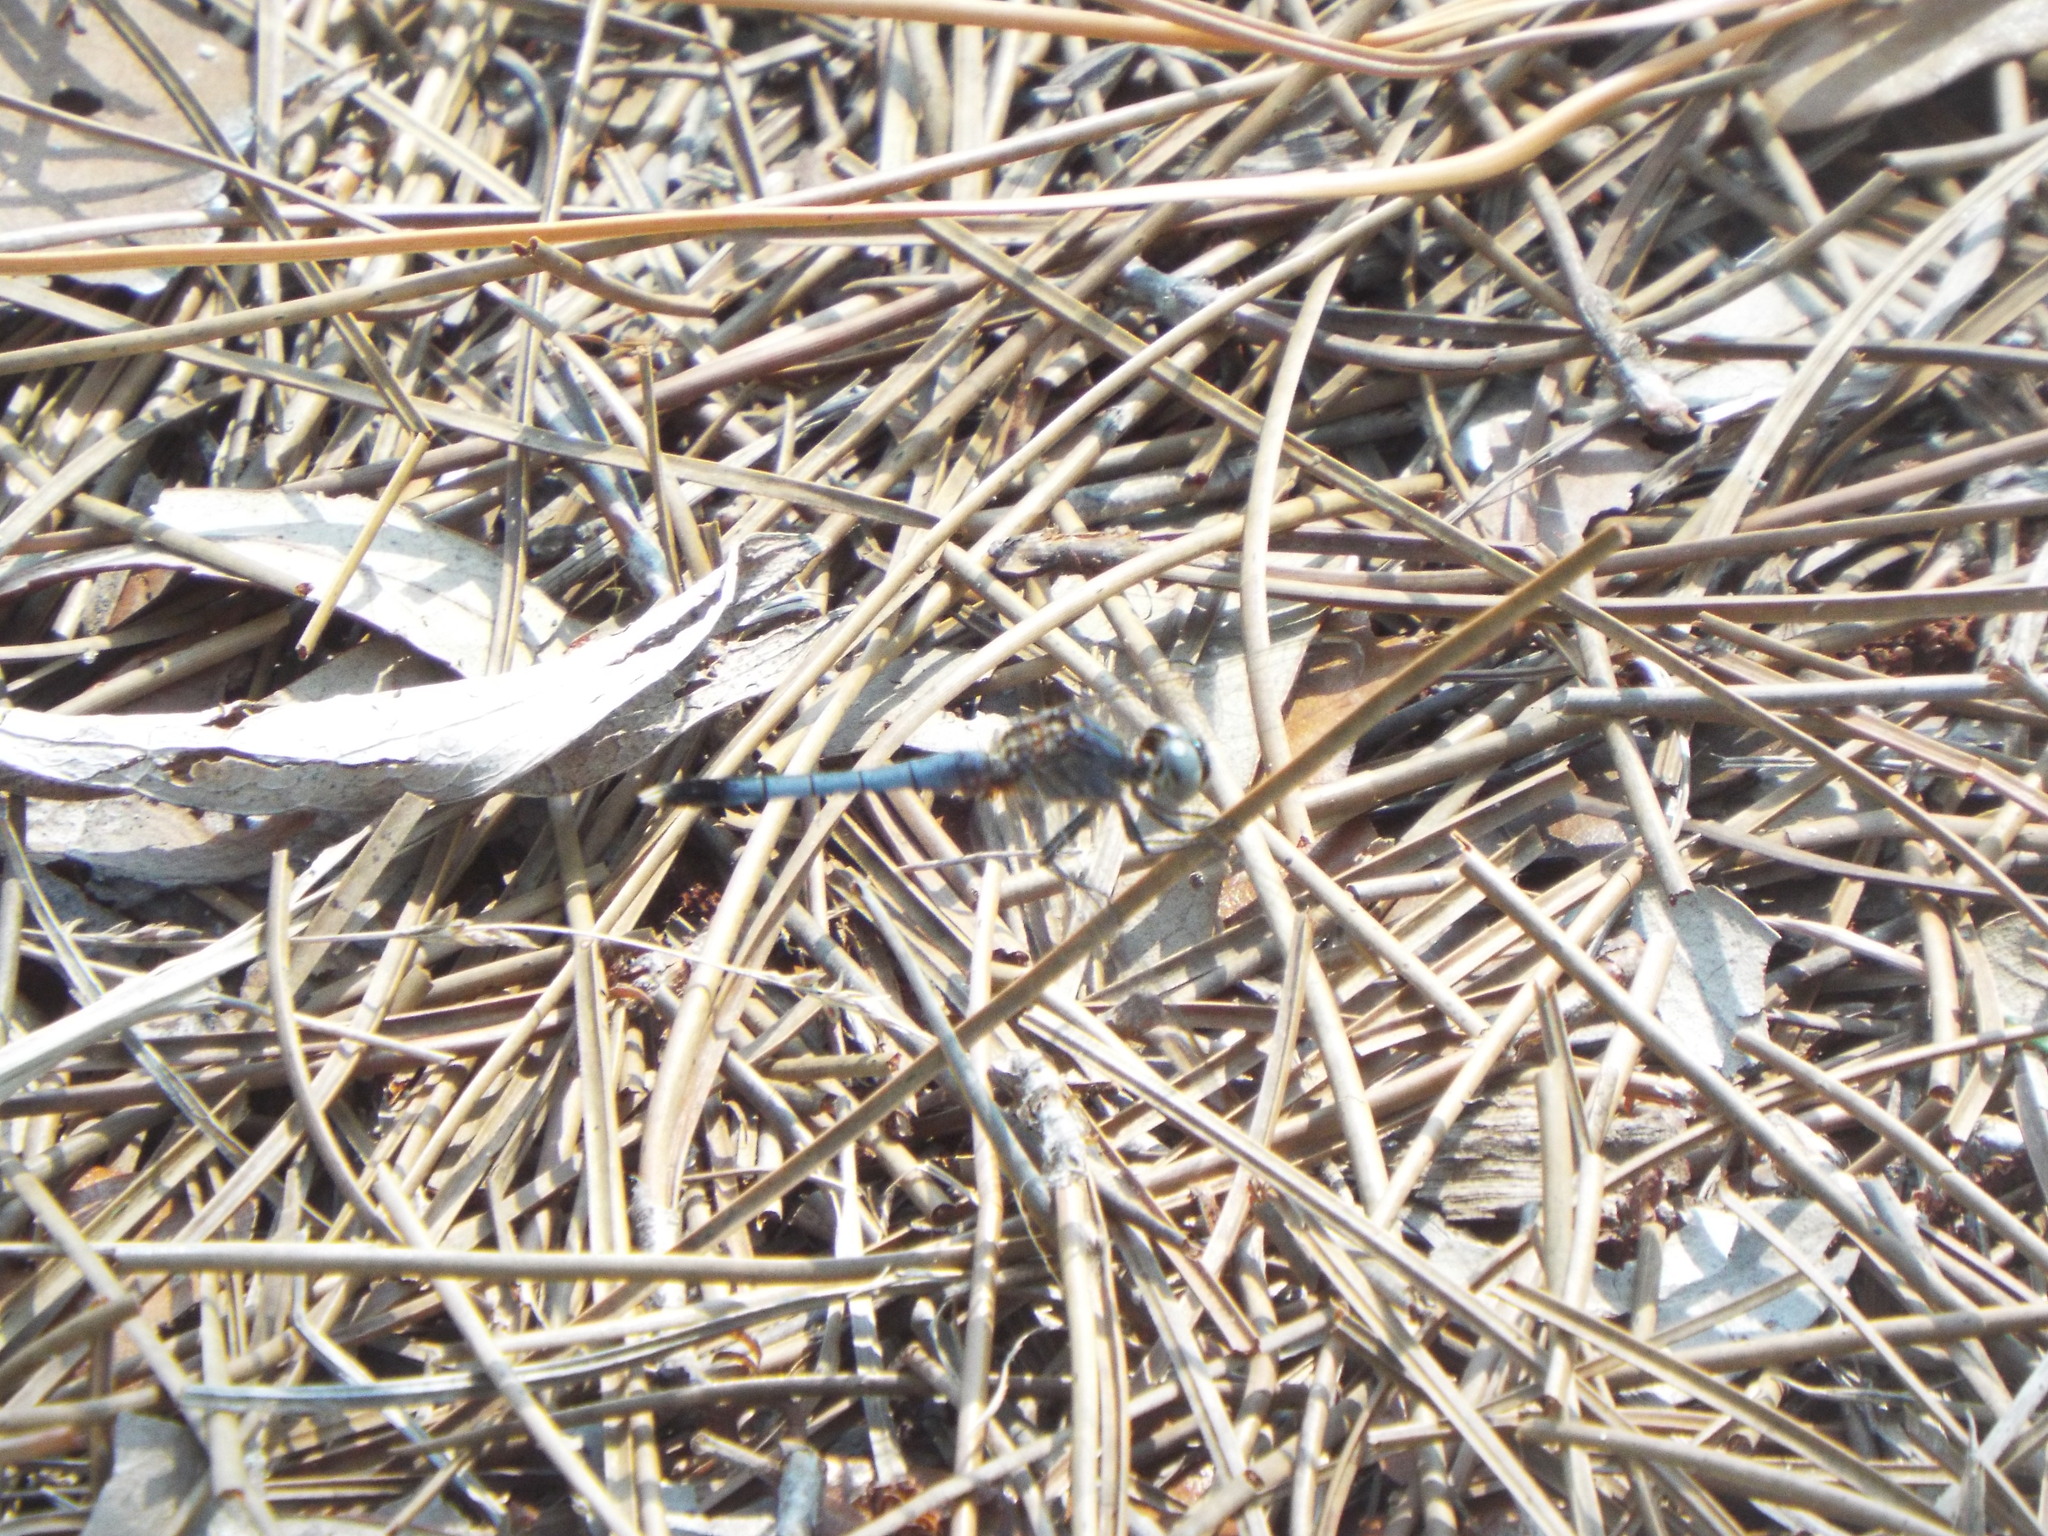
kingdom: Animalia
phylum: Arthropoda
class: Insecta
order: Odonata
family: Libellulidae
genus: Erythrodiplax
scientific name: Erythrodiplax minuscula
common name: Little blue dragonlet
